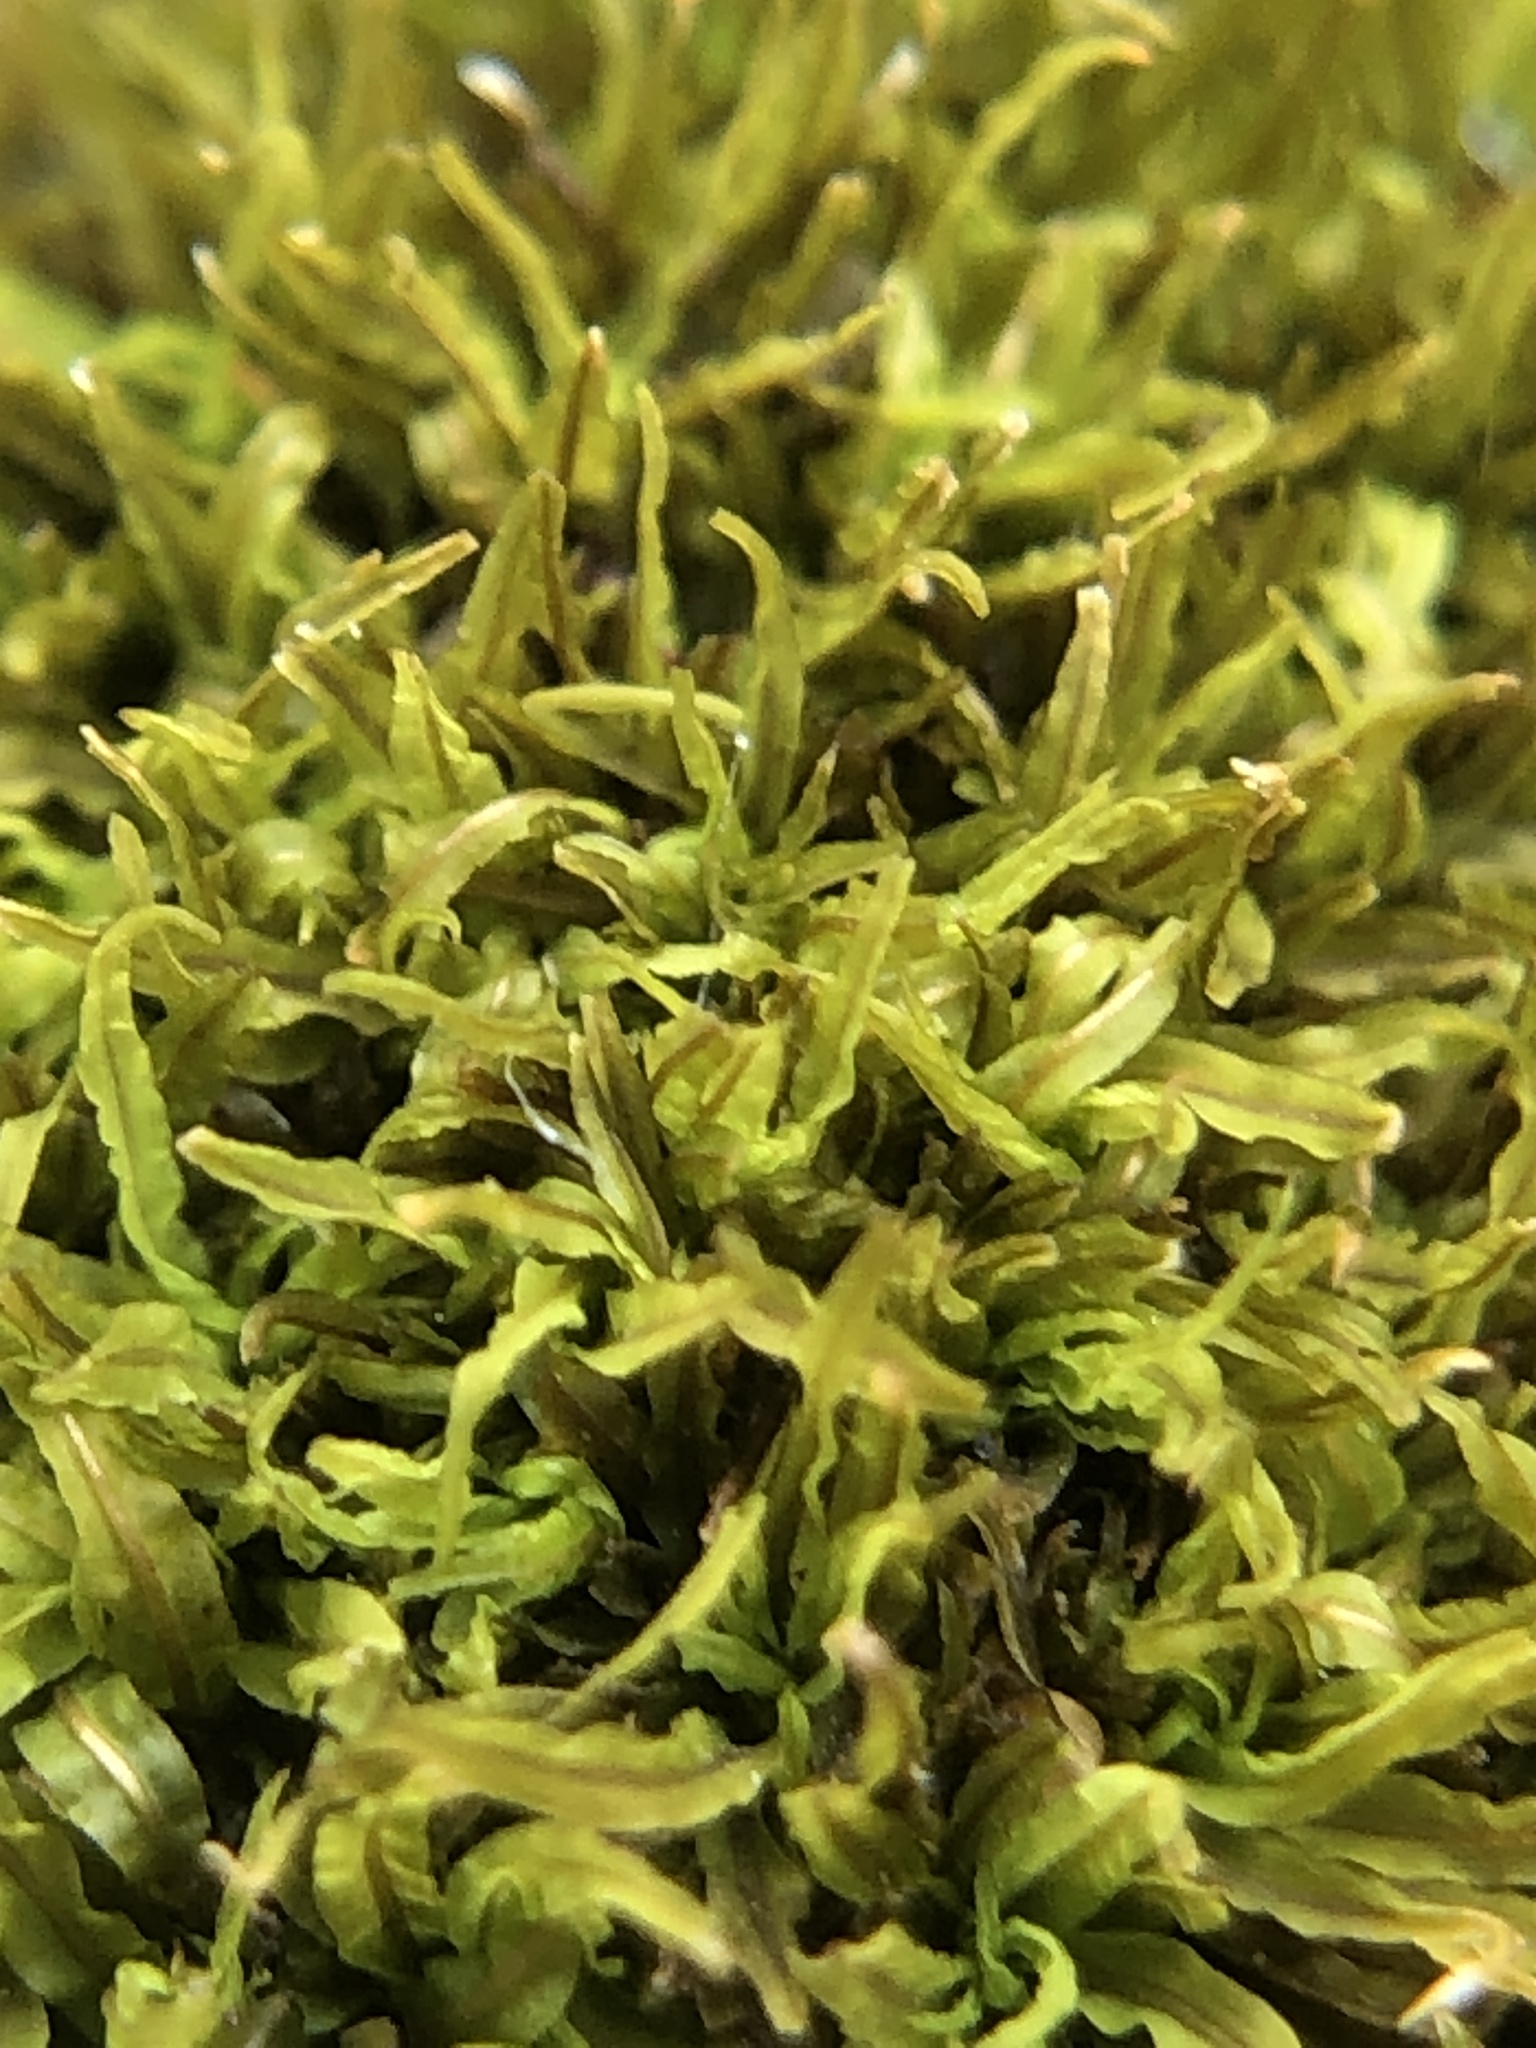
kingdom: Plantae
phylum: Bryophyta
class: Bryopsida
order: Pottiales
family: Pottiaceae
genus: Tortella
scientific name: Tortella nitida
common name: Neat crisp-moss
